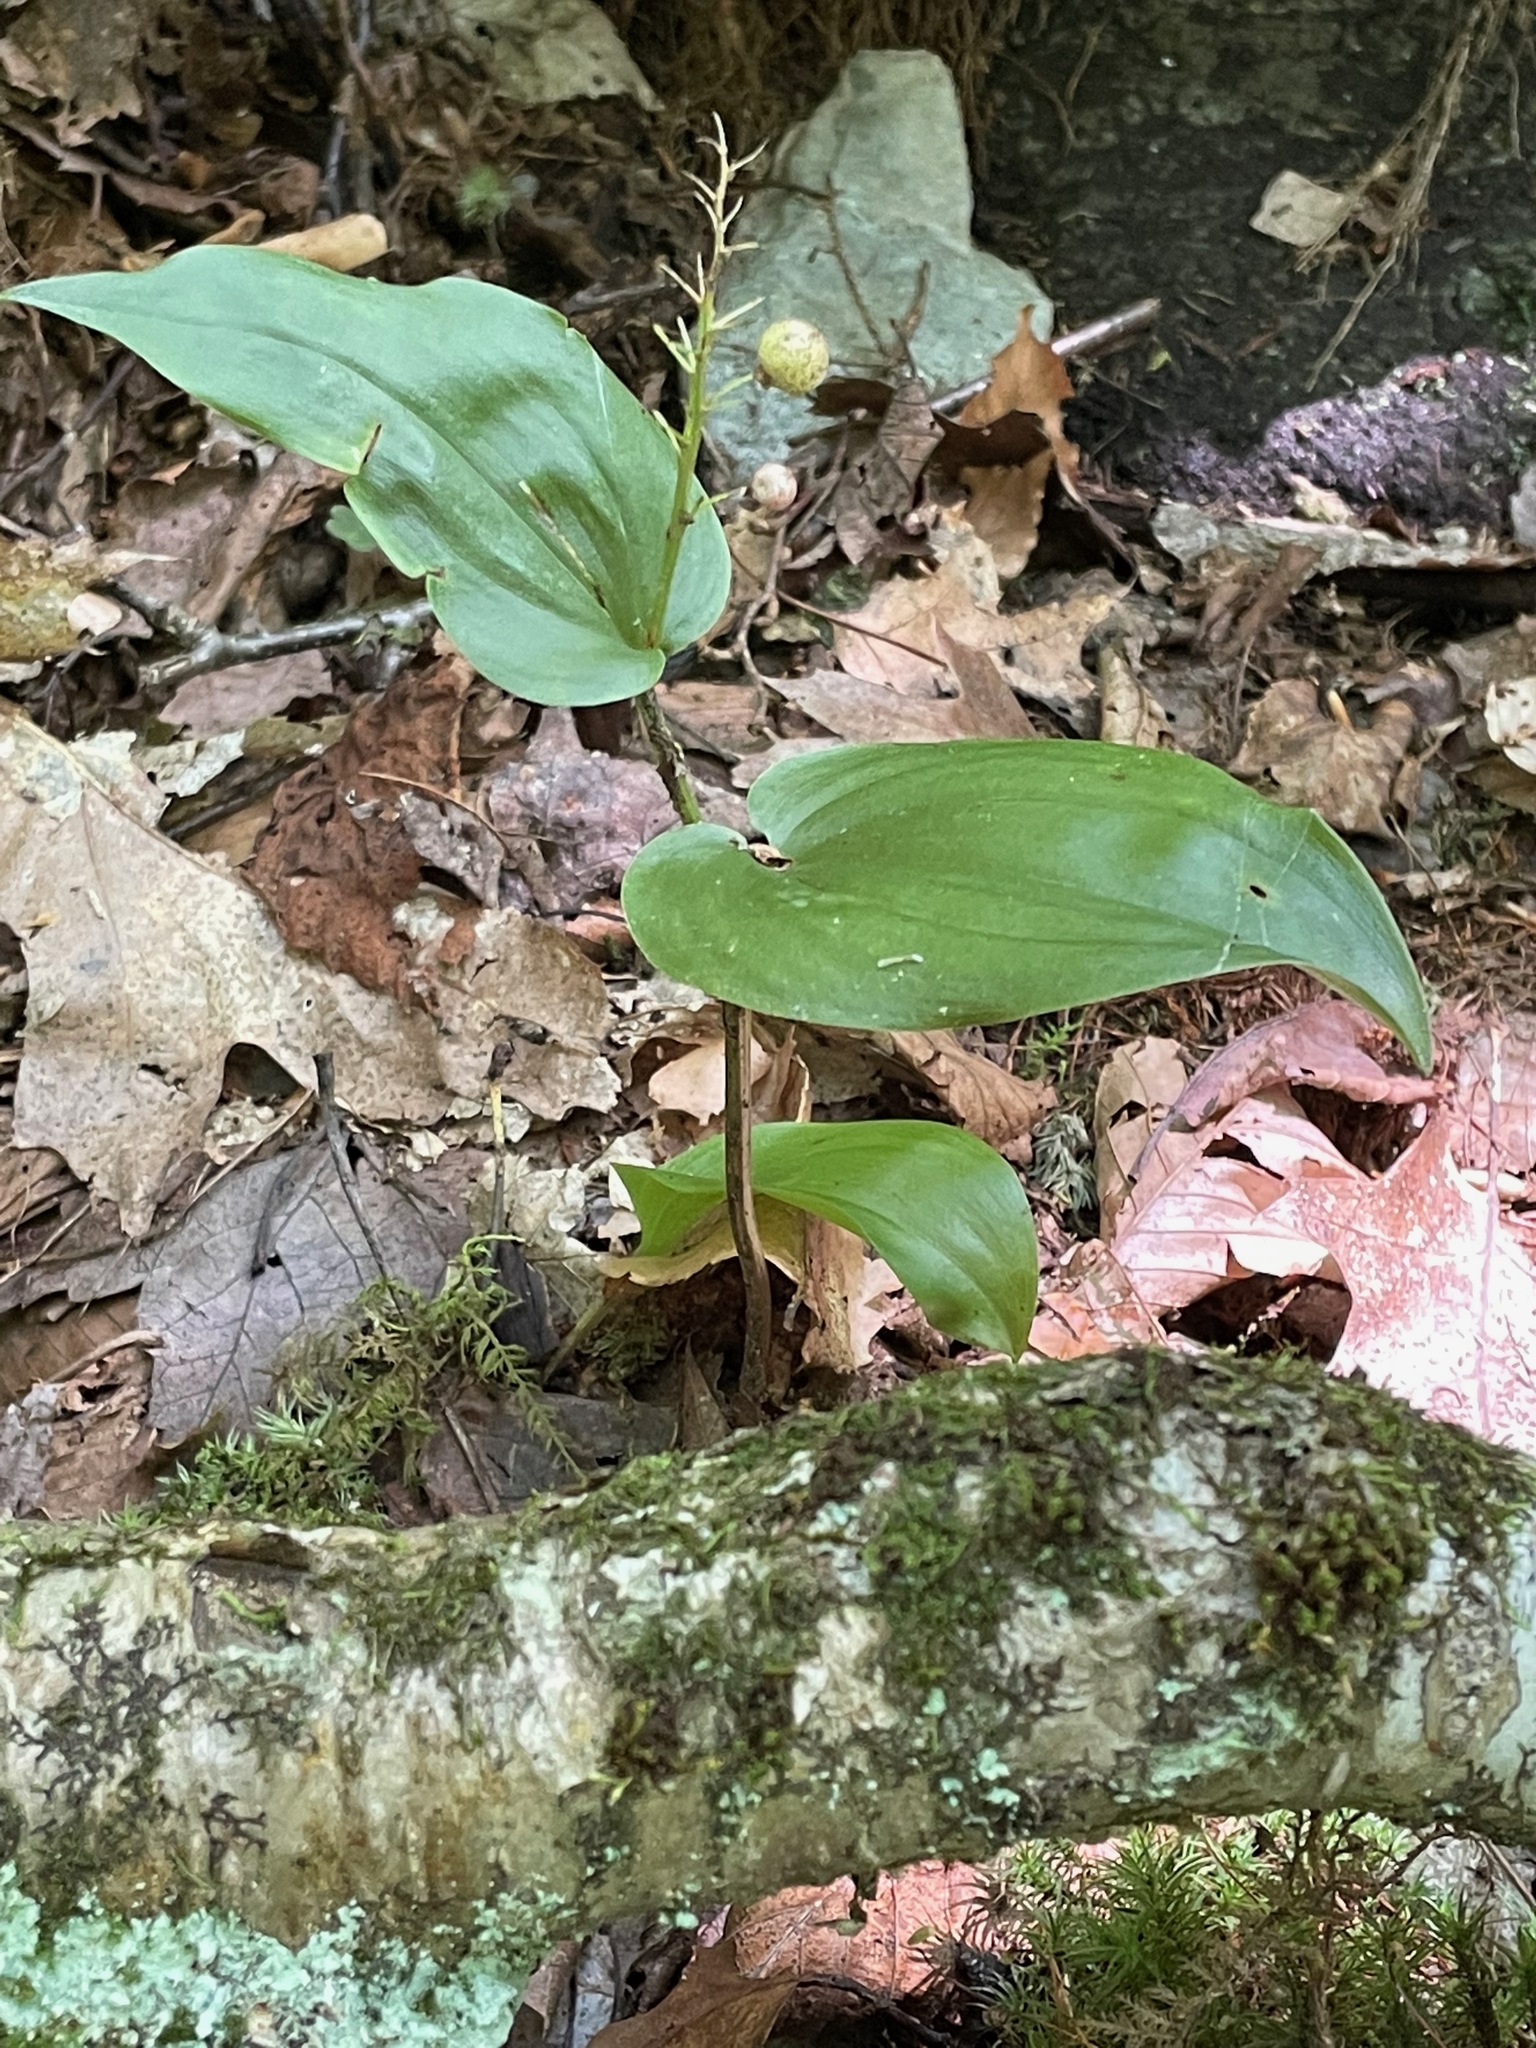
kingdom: Plantae
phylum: Tracheophyta
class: Liliopsida
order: Asparagales
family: Asparagaceae
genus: Maianthemum
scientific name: Maianthemum canadense
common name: False lily-of-the-valley
